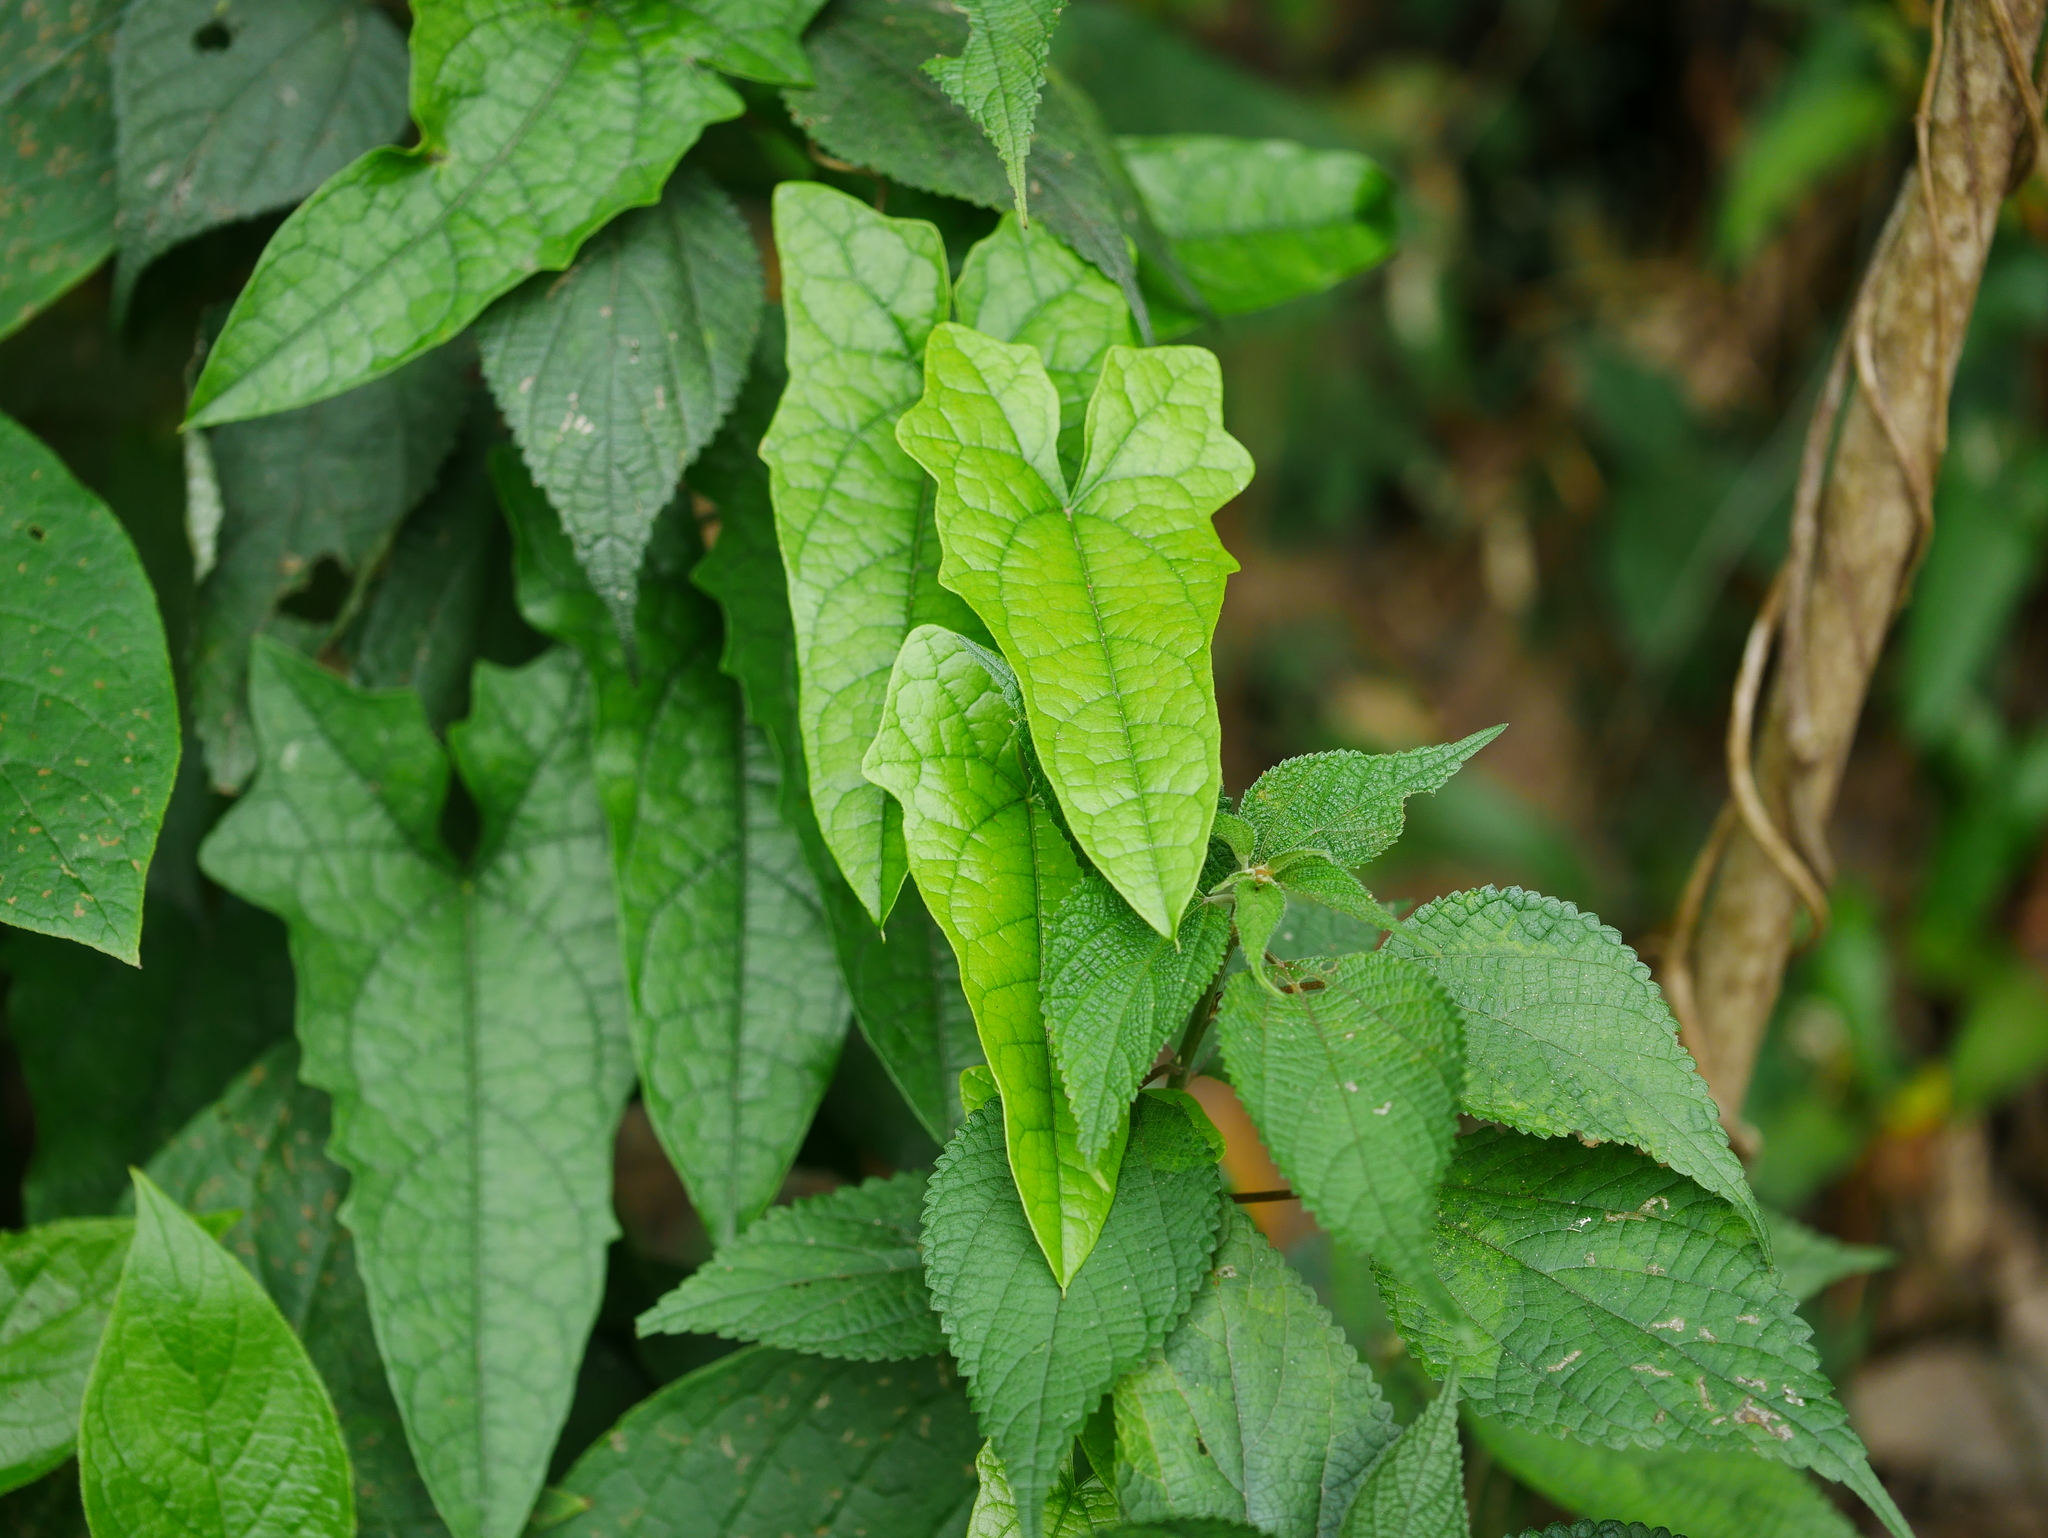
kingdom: Plantae
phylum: Tracheophyta
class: Magnoliopsida
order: Ranunculales
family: Menispermaceae
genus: Paratinospora
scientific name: Paratinospora dentata
